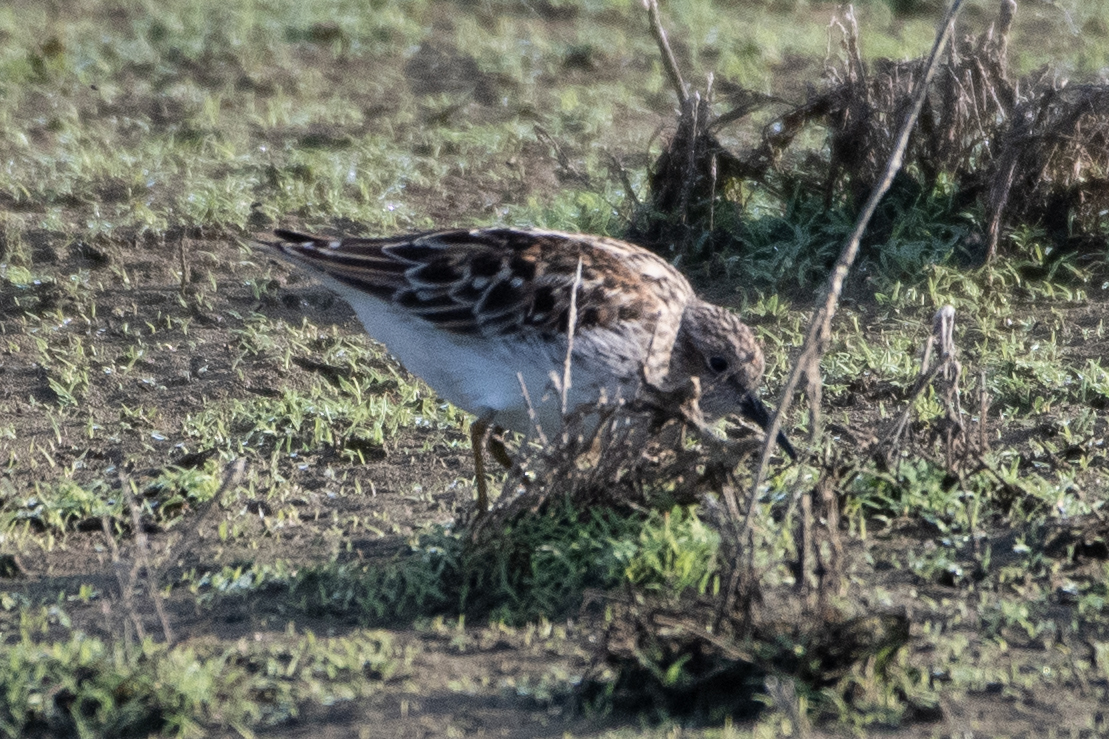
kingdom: Animalia
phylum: Chordata
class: Aves
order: Charadriiformes
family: Scolopacidae
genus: Calidris
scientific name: Calidris minutilla
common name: Least sandpiper
